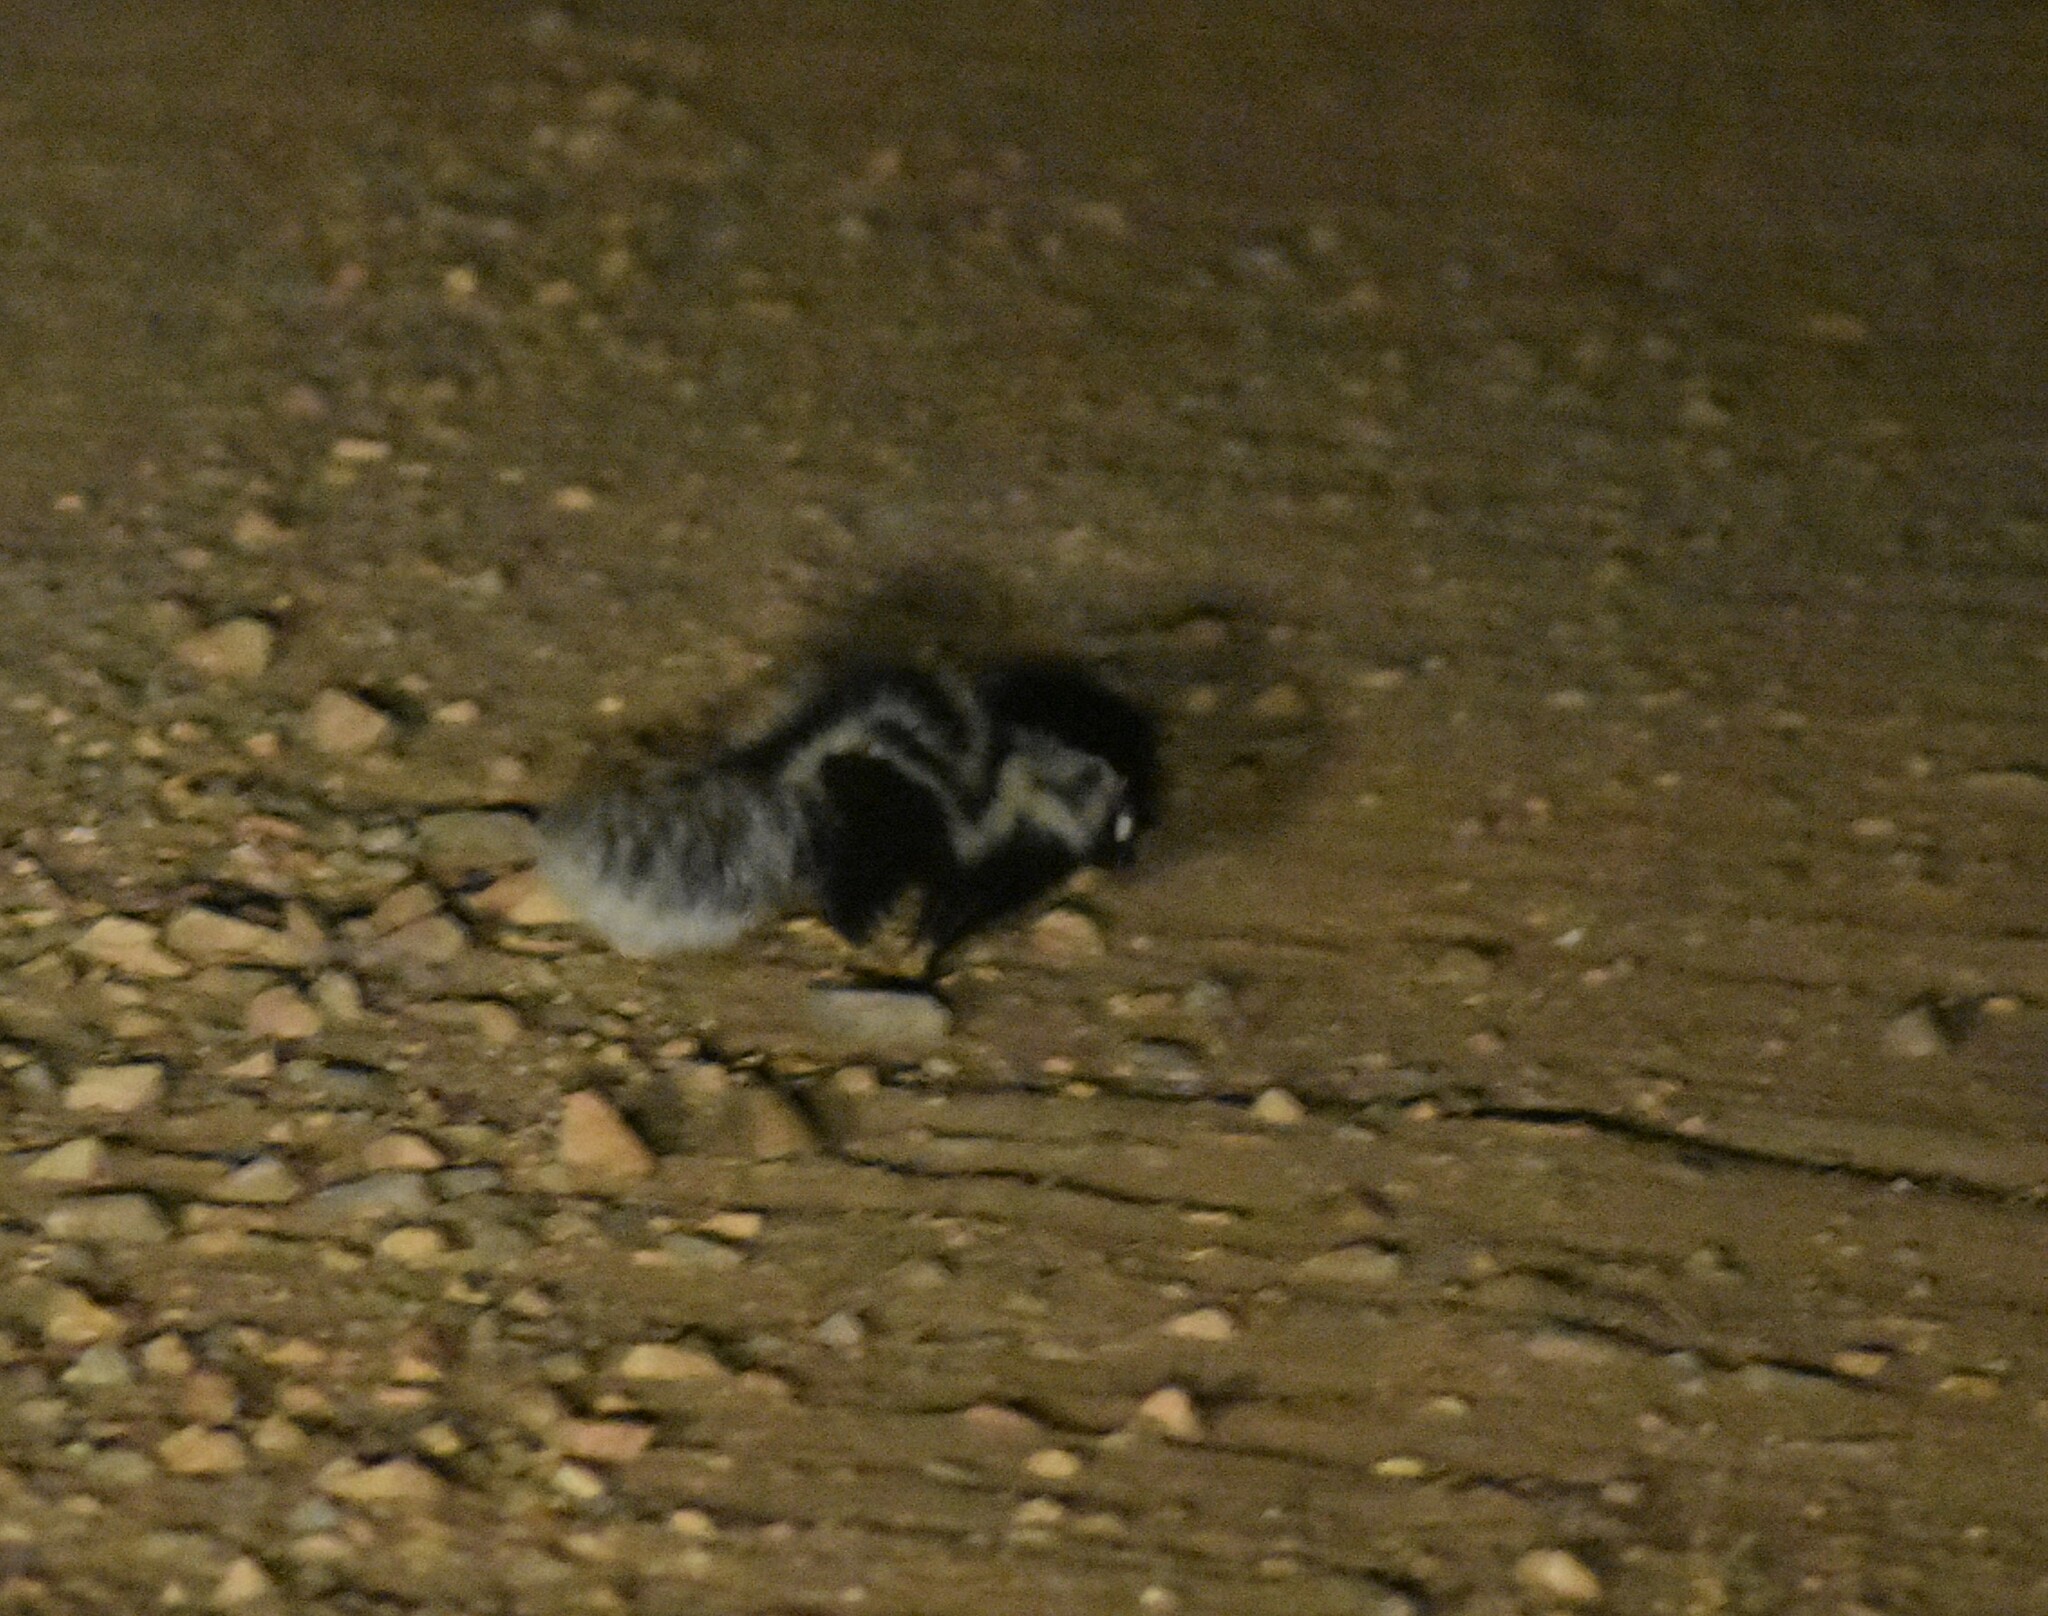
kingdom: Animalia
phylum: Chordata
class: Mammalia
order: Carnivora
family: Mustelidae
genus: Ictonyx
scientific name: Ictonyx striatus
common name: Striped polecat
